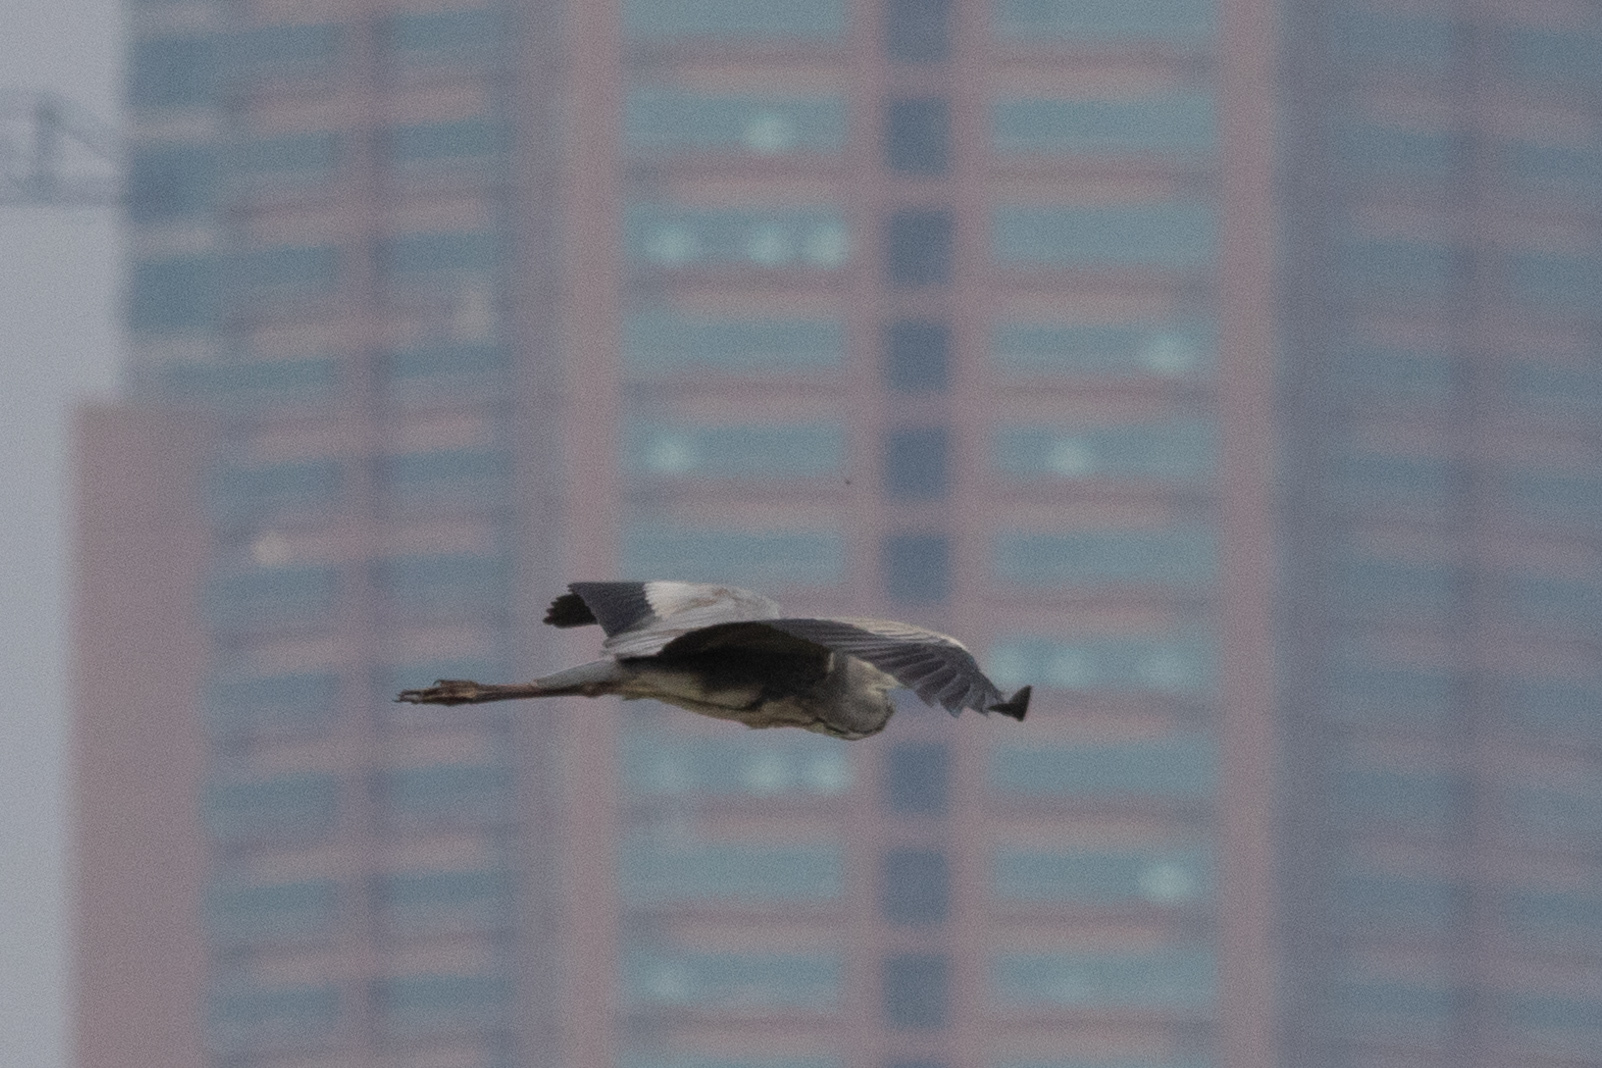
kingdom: Animalia
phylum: Chordata
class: Aves
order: Pelecaniformes
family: Ardeidae
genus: Ardea
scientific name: Ardea cinerea
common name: Grey heron
